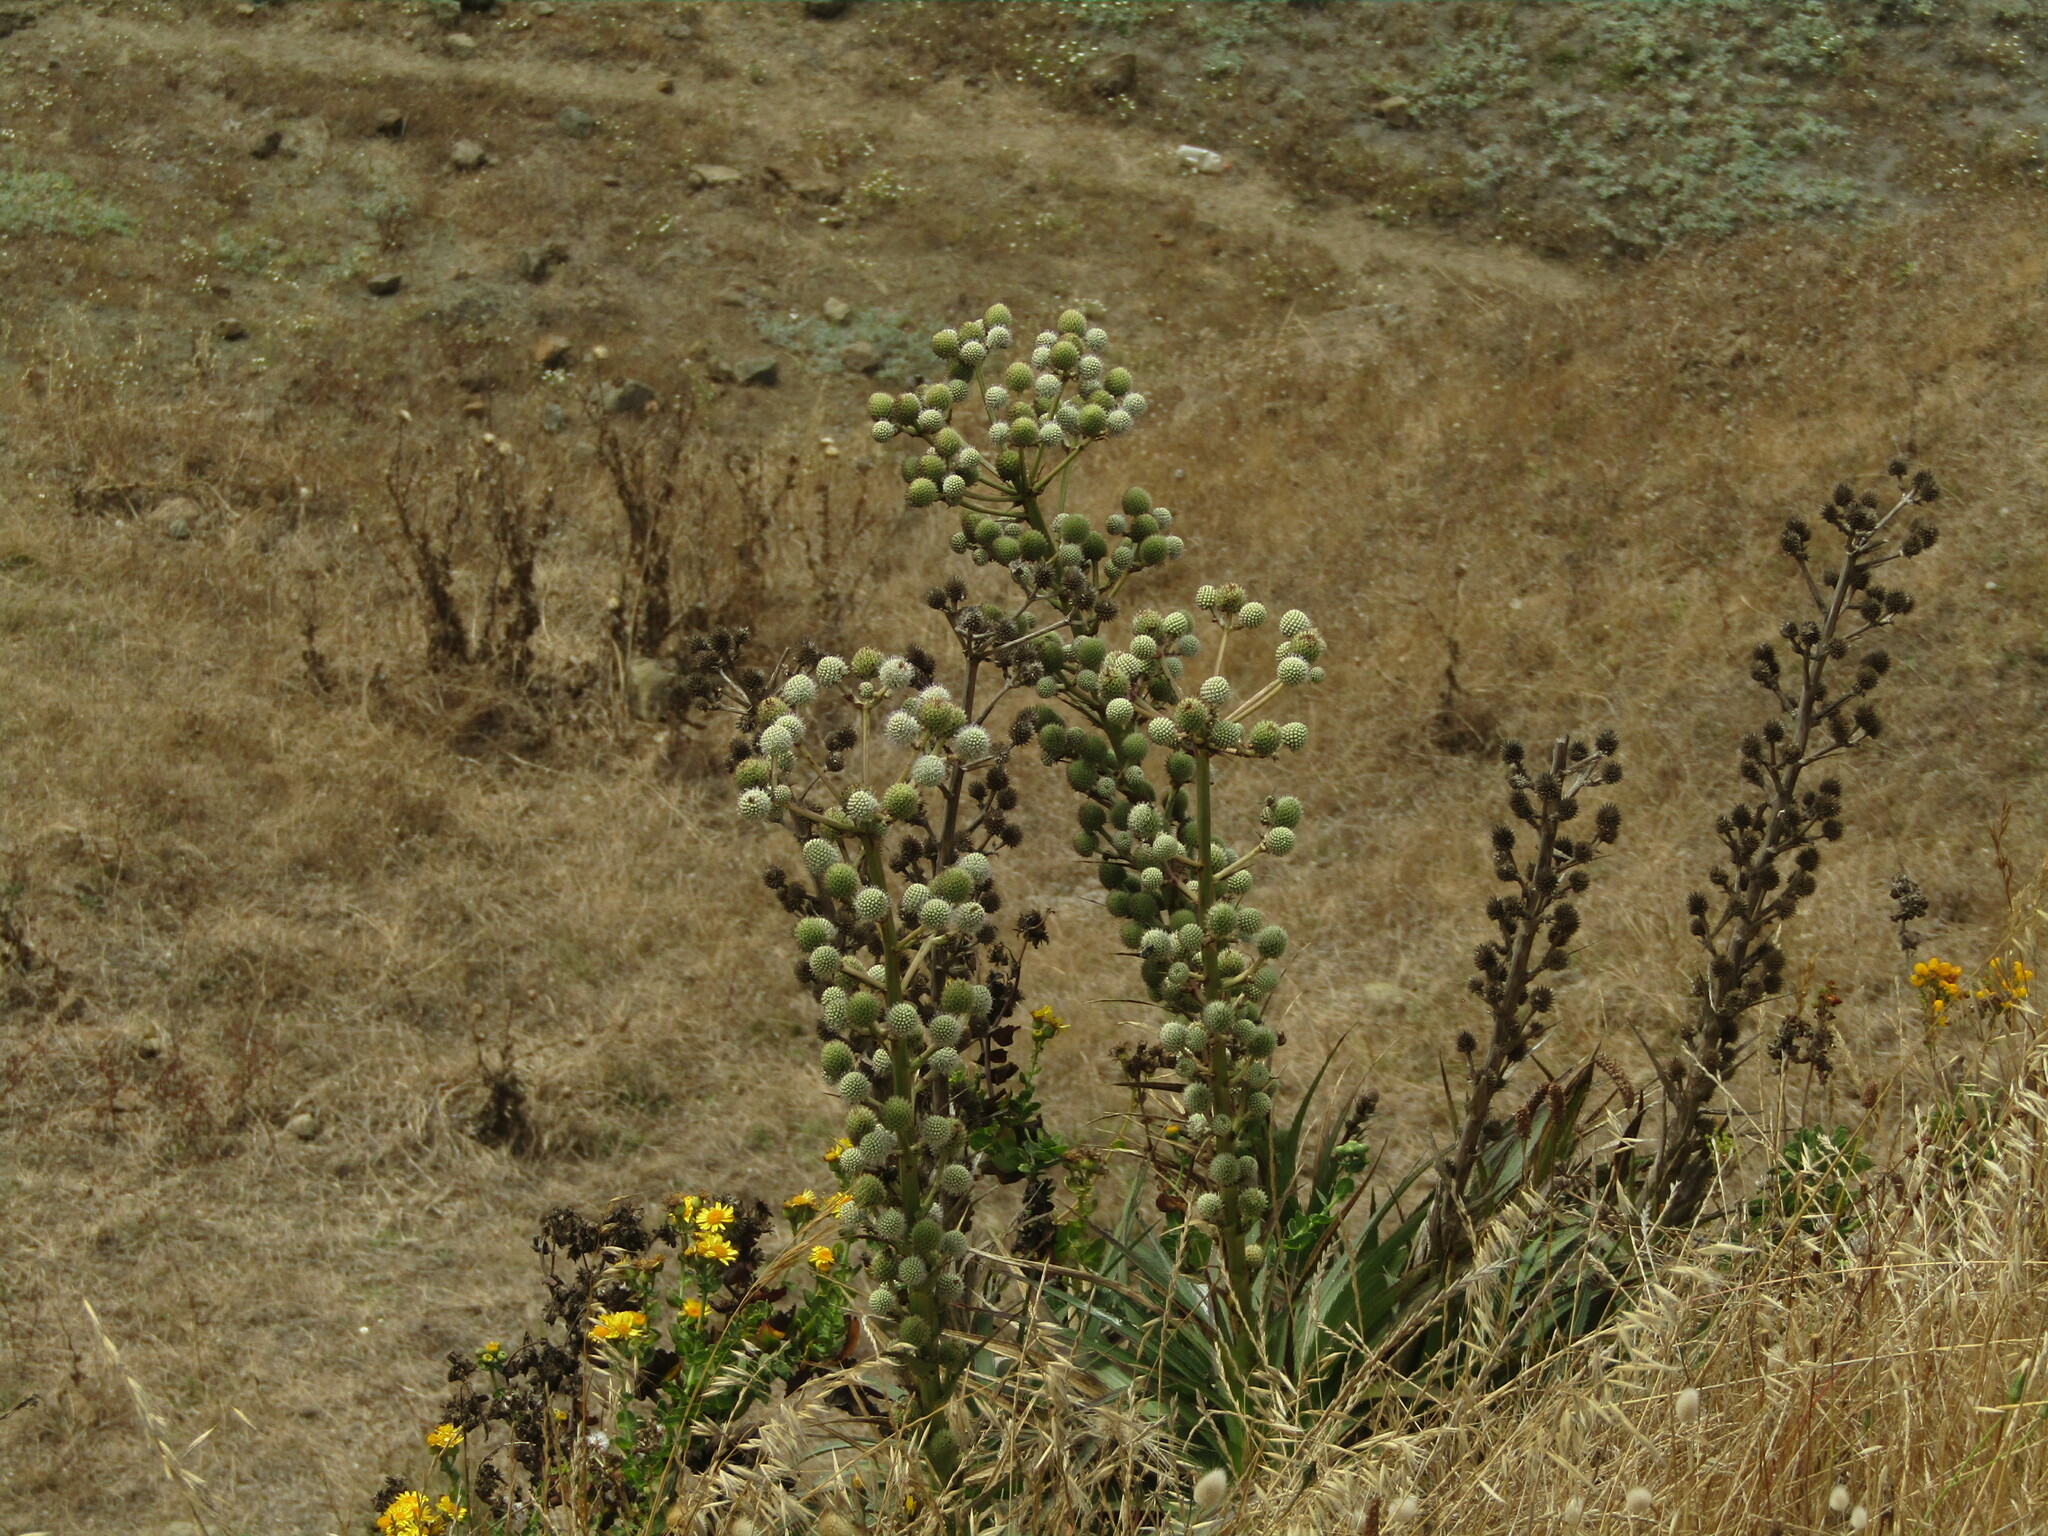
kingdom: Plantae
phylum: Tracheophyta
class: Magnoliopsida
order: Apiales
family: Apiaceae
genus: Eryngium
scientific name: Eryngium humboldtii
